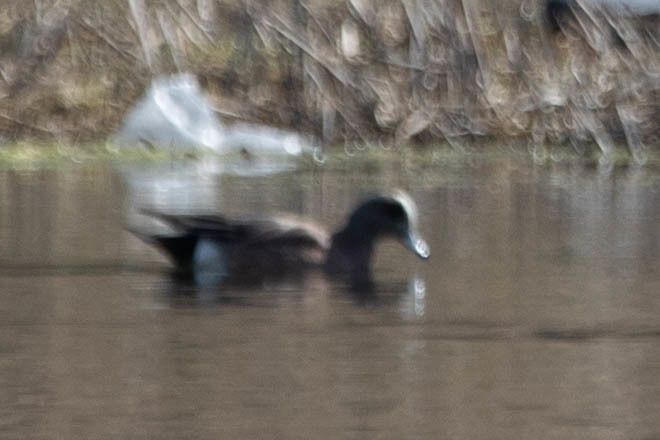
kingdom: Animalia
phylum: Chordata
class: Aves
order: Anseriformes
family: Anatidae
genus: Mareca
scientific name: Mareca americana
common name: American wigeon
